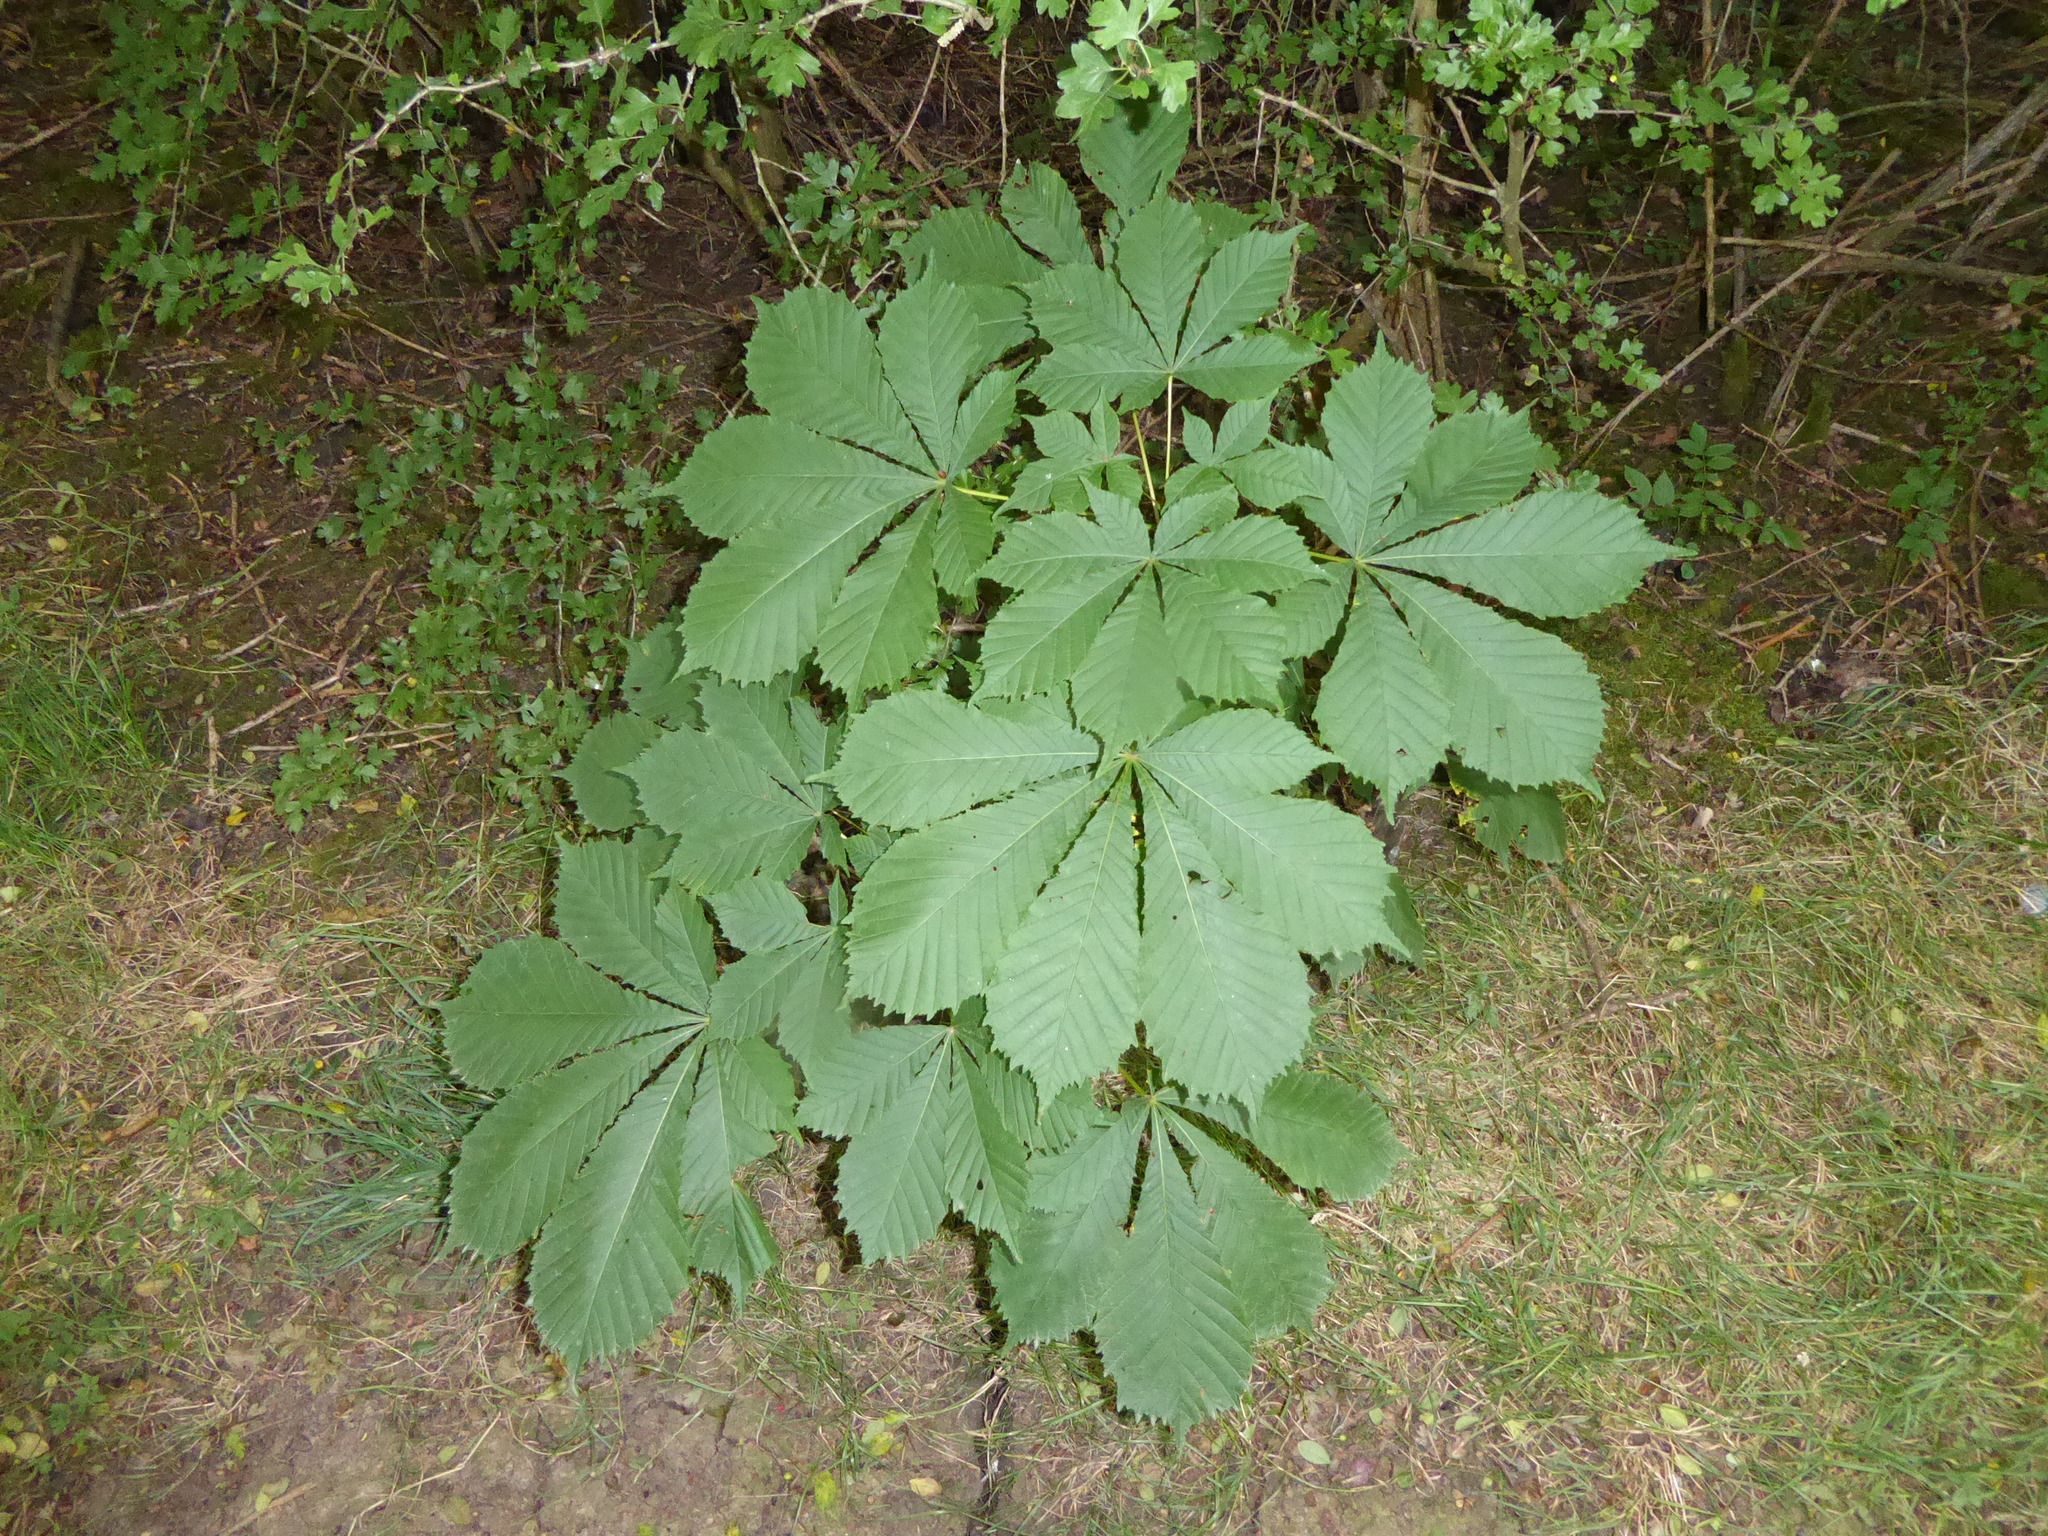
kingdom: Plantae
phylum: Tracheophyta
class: Magnoliopsida
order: Sapindales
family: Sapindaceae
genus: Aesculus
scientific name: Aesculus hippocastanum
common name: Horse-chestnut
